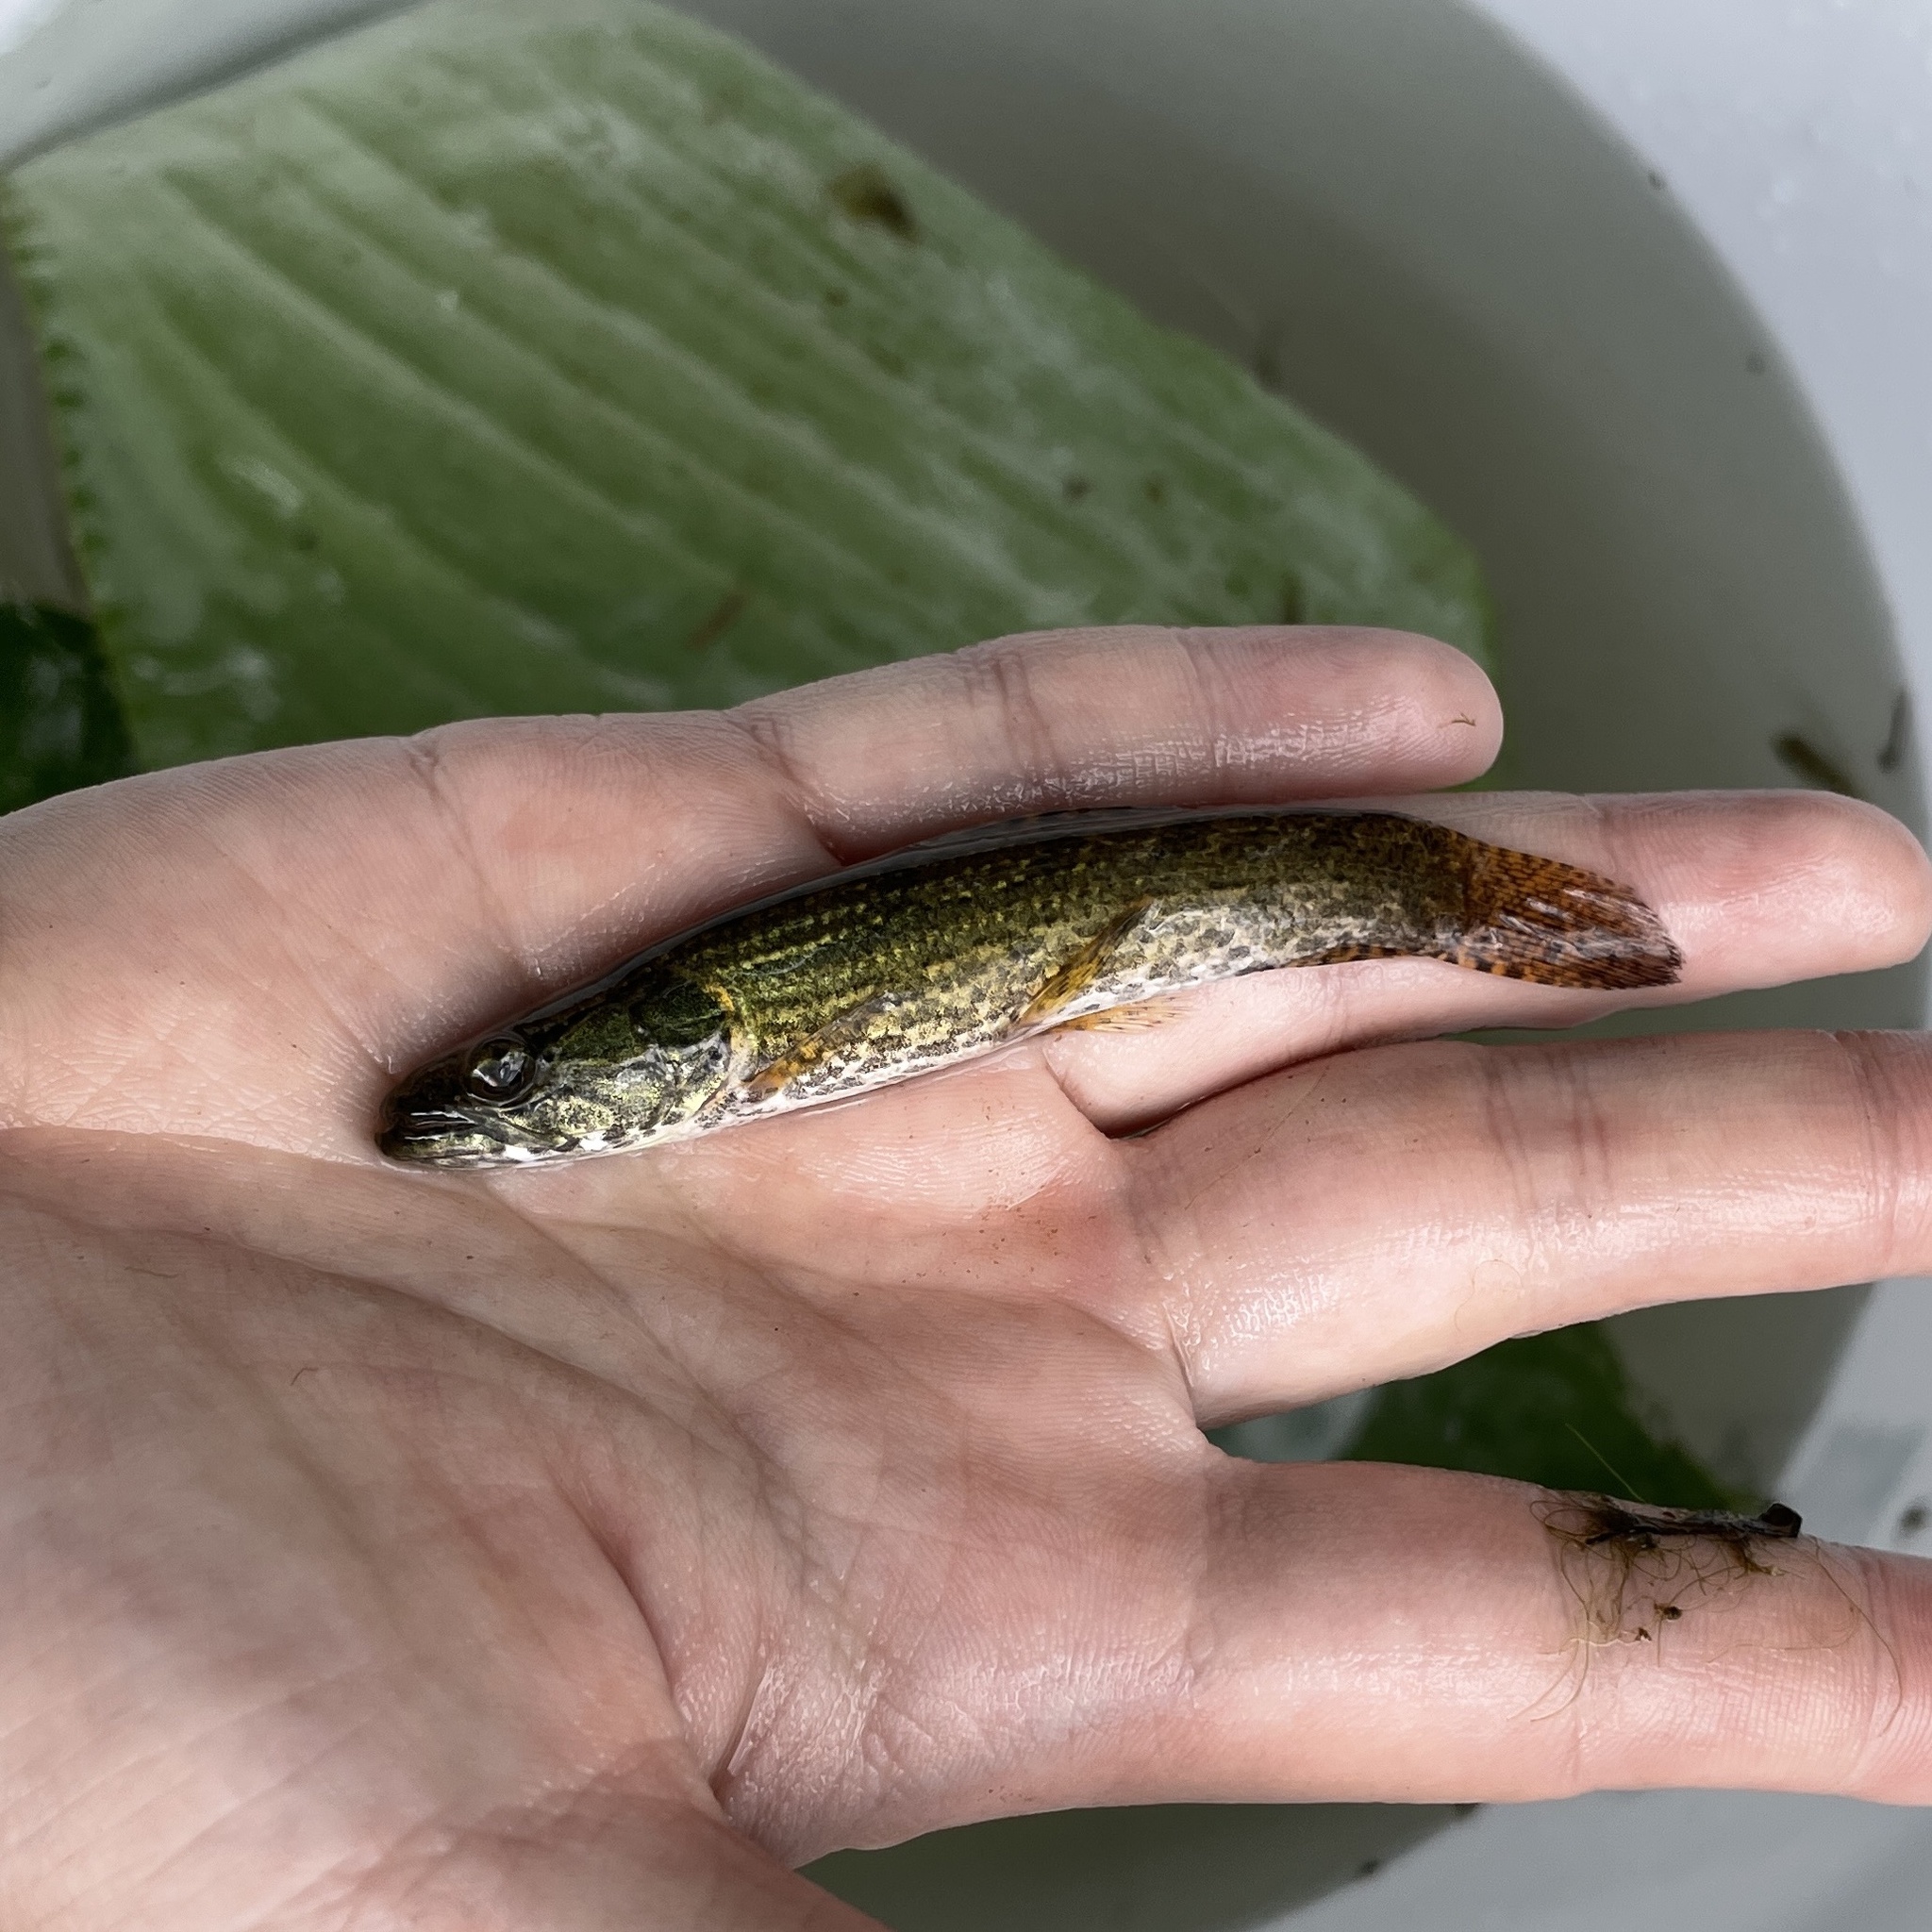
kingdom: Animalia
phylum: Chordata
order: Characiformes
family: Erythrinidae
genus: Hoplias
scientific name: Hoplias malabaricus
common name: Trahira
